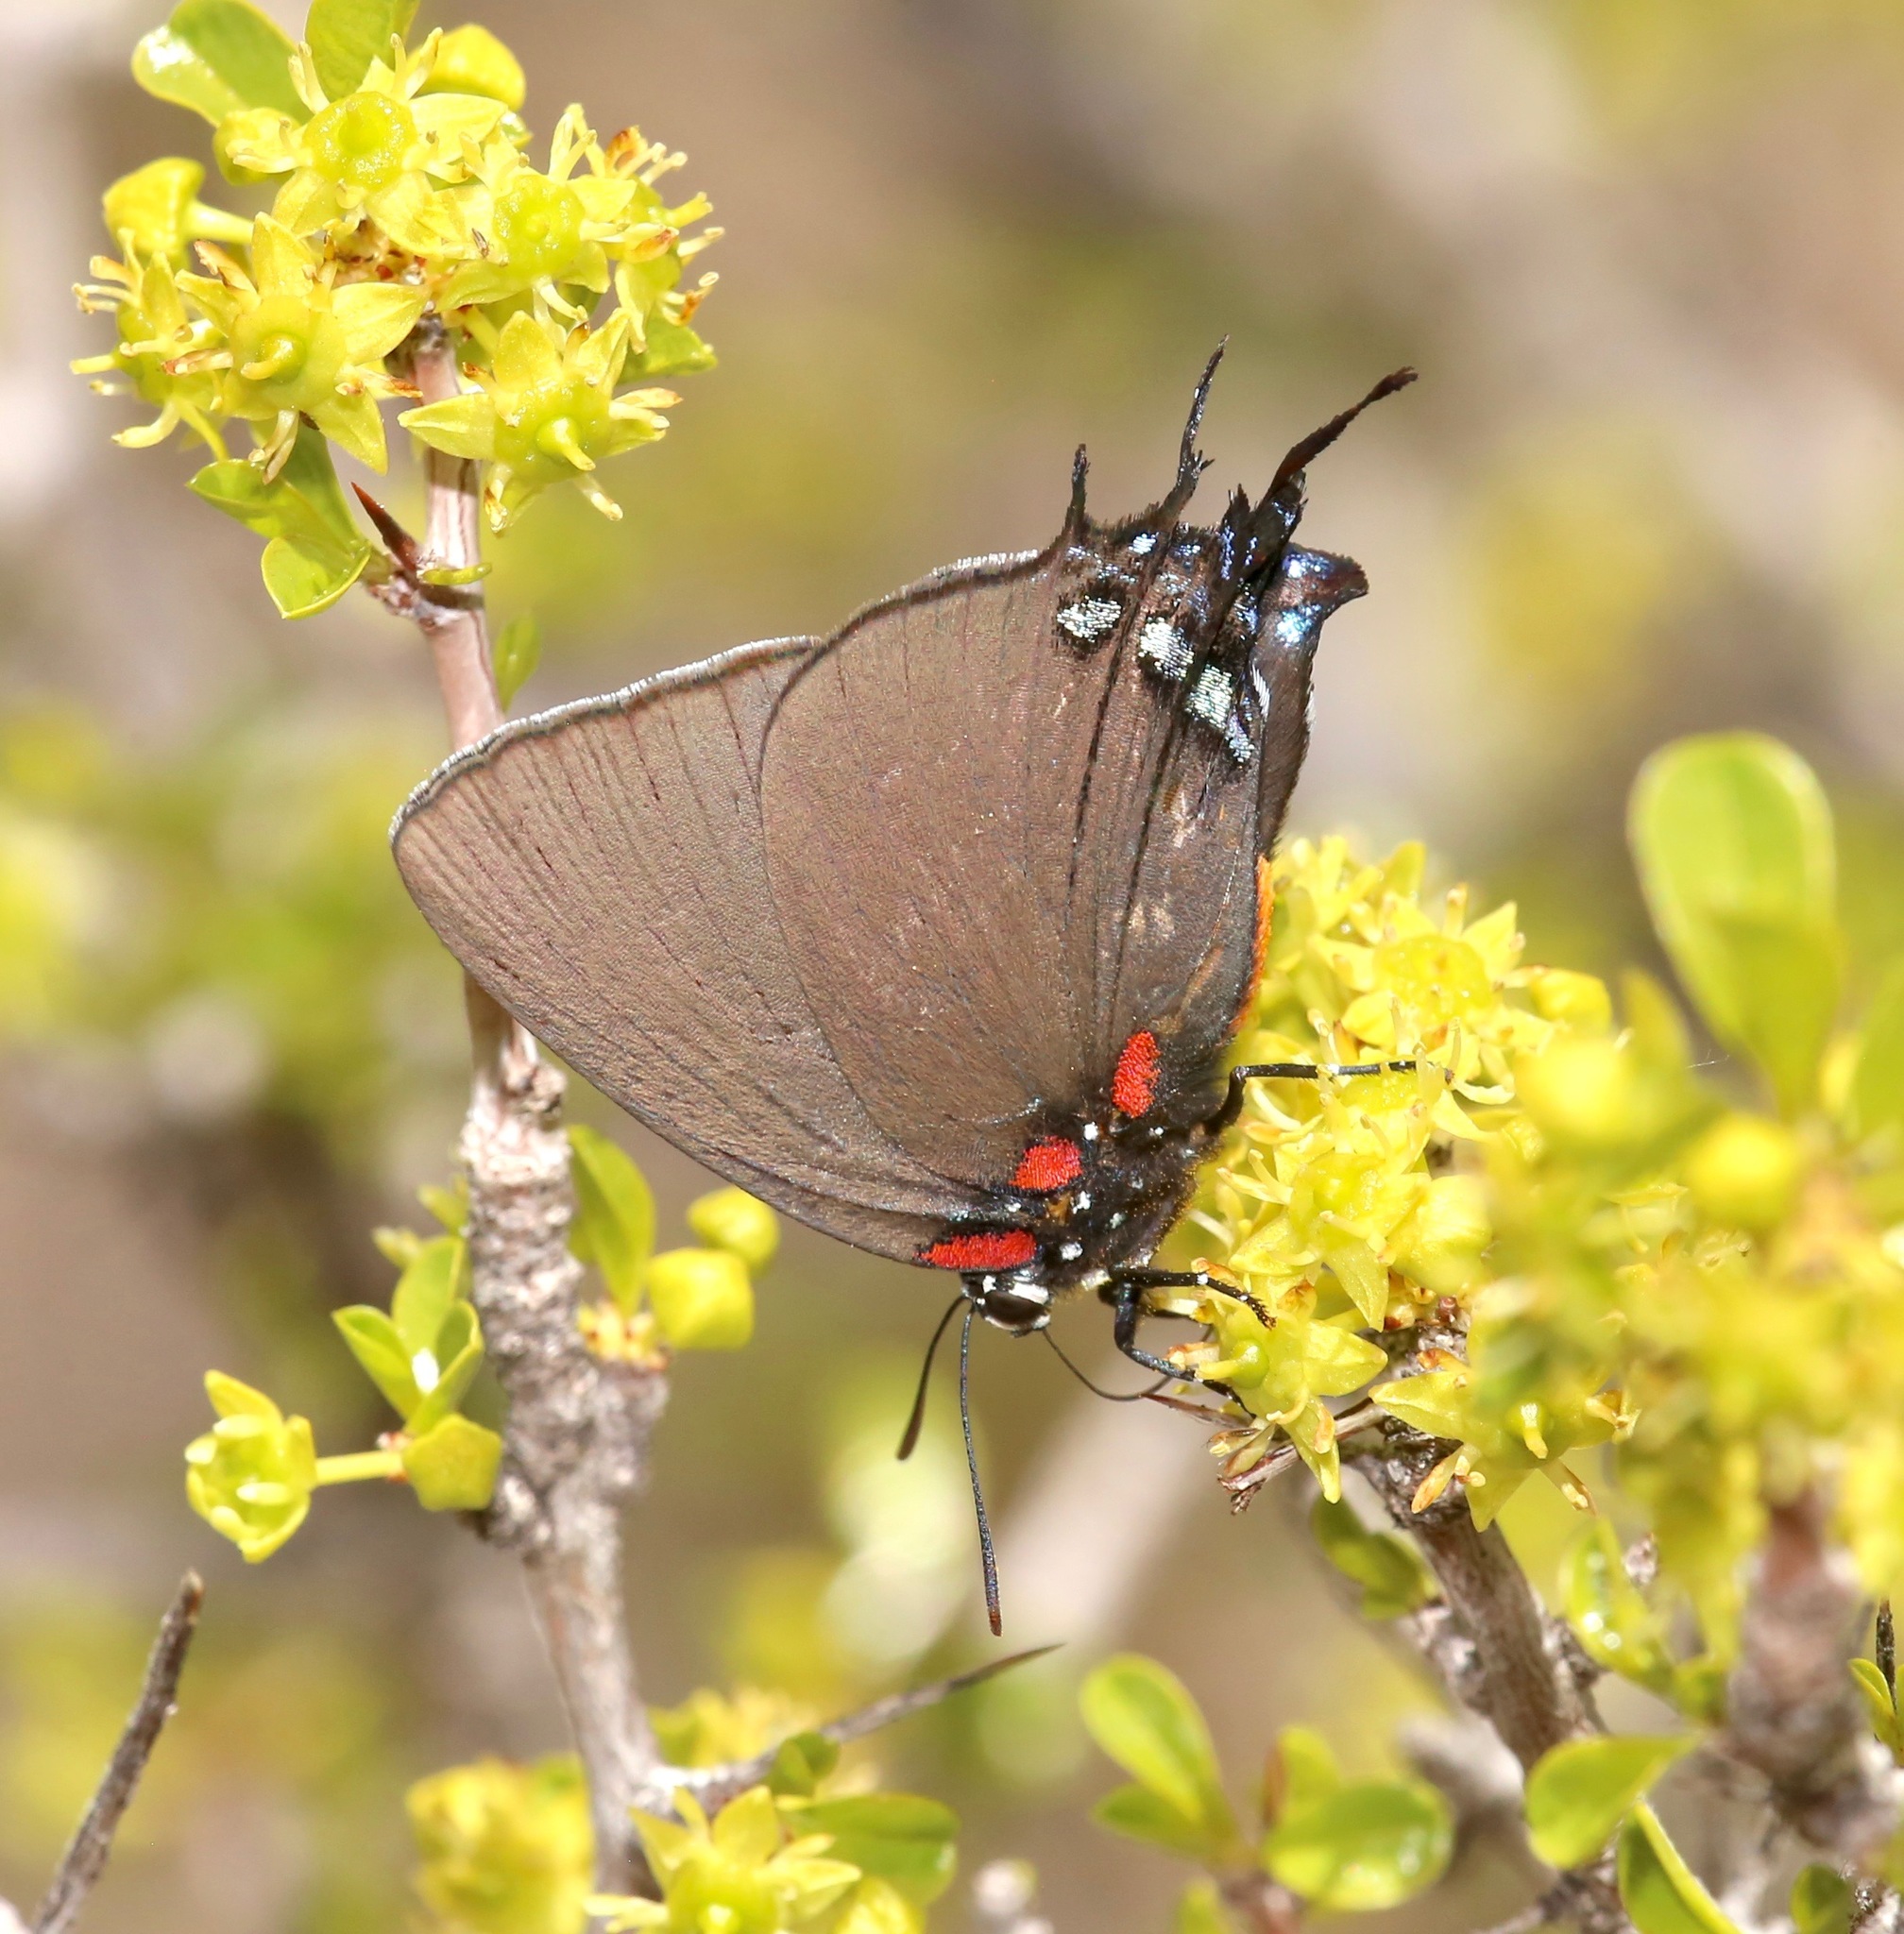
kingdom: Animalia
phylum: Arthropoda
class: Insecta
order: Lepidoptera
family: Lycaenidae
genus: Atlides
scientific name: Atlides halesus
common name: Great purple hairstreak
